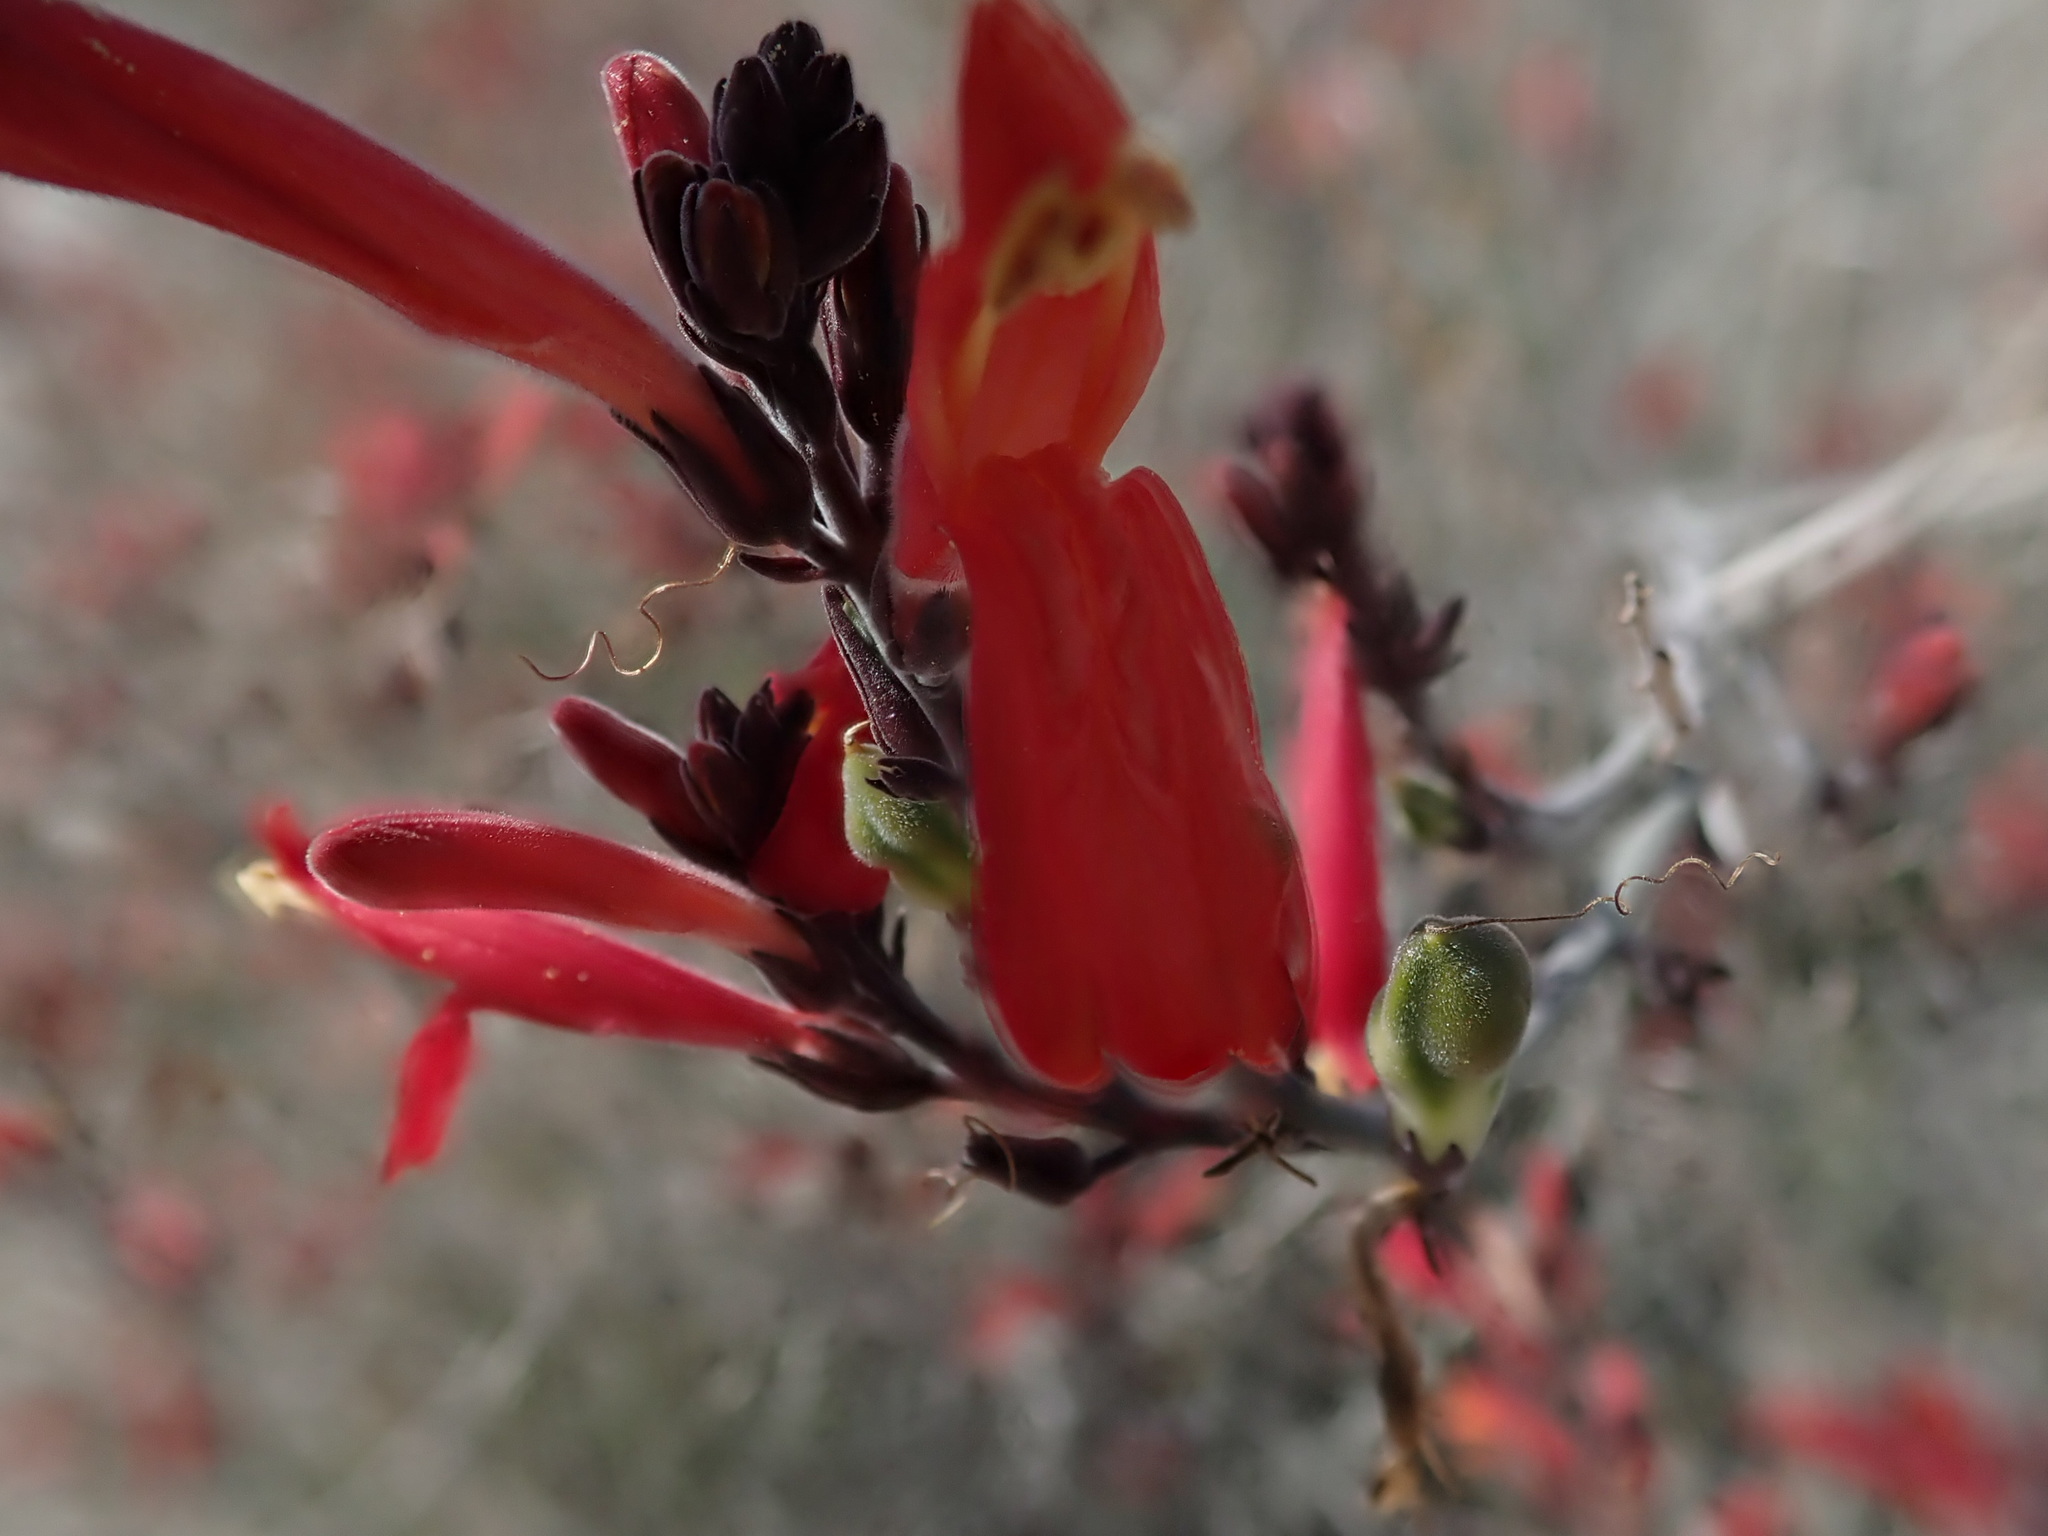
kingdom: Plantae
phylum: Tracheophyta
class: Magnoliopsida
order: Lamiales
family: Acanthaceae
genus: Justicia
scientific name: Justicia californica
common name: Chuparosa-honeysuckle
